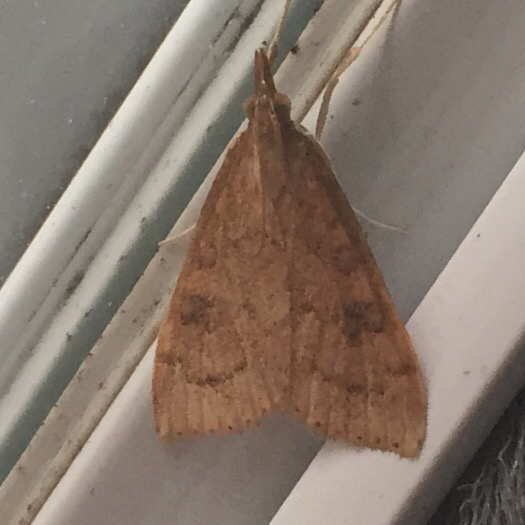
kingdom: Animalia
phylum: Arthropoda
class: Insecta
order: Lepidoptera
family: Crambidae
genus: Udea
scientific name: Udea rubigalis
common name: Celery leaftier moth
